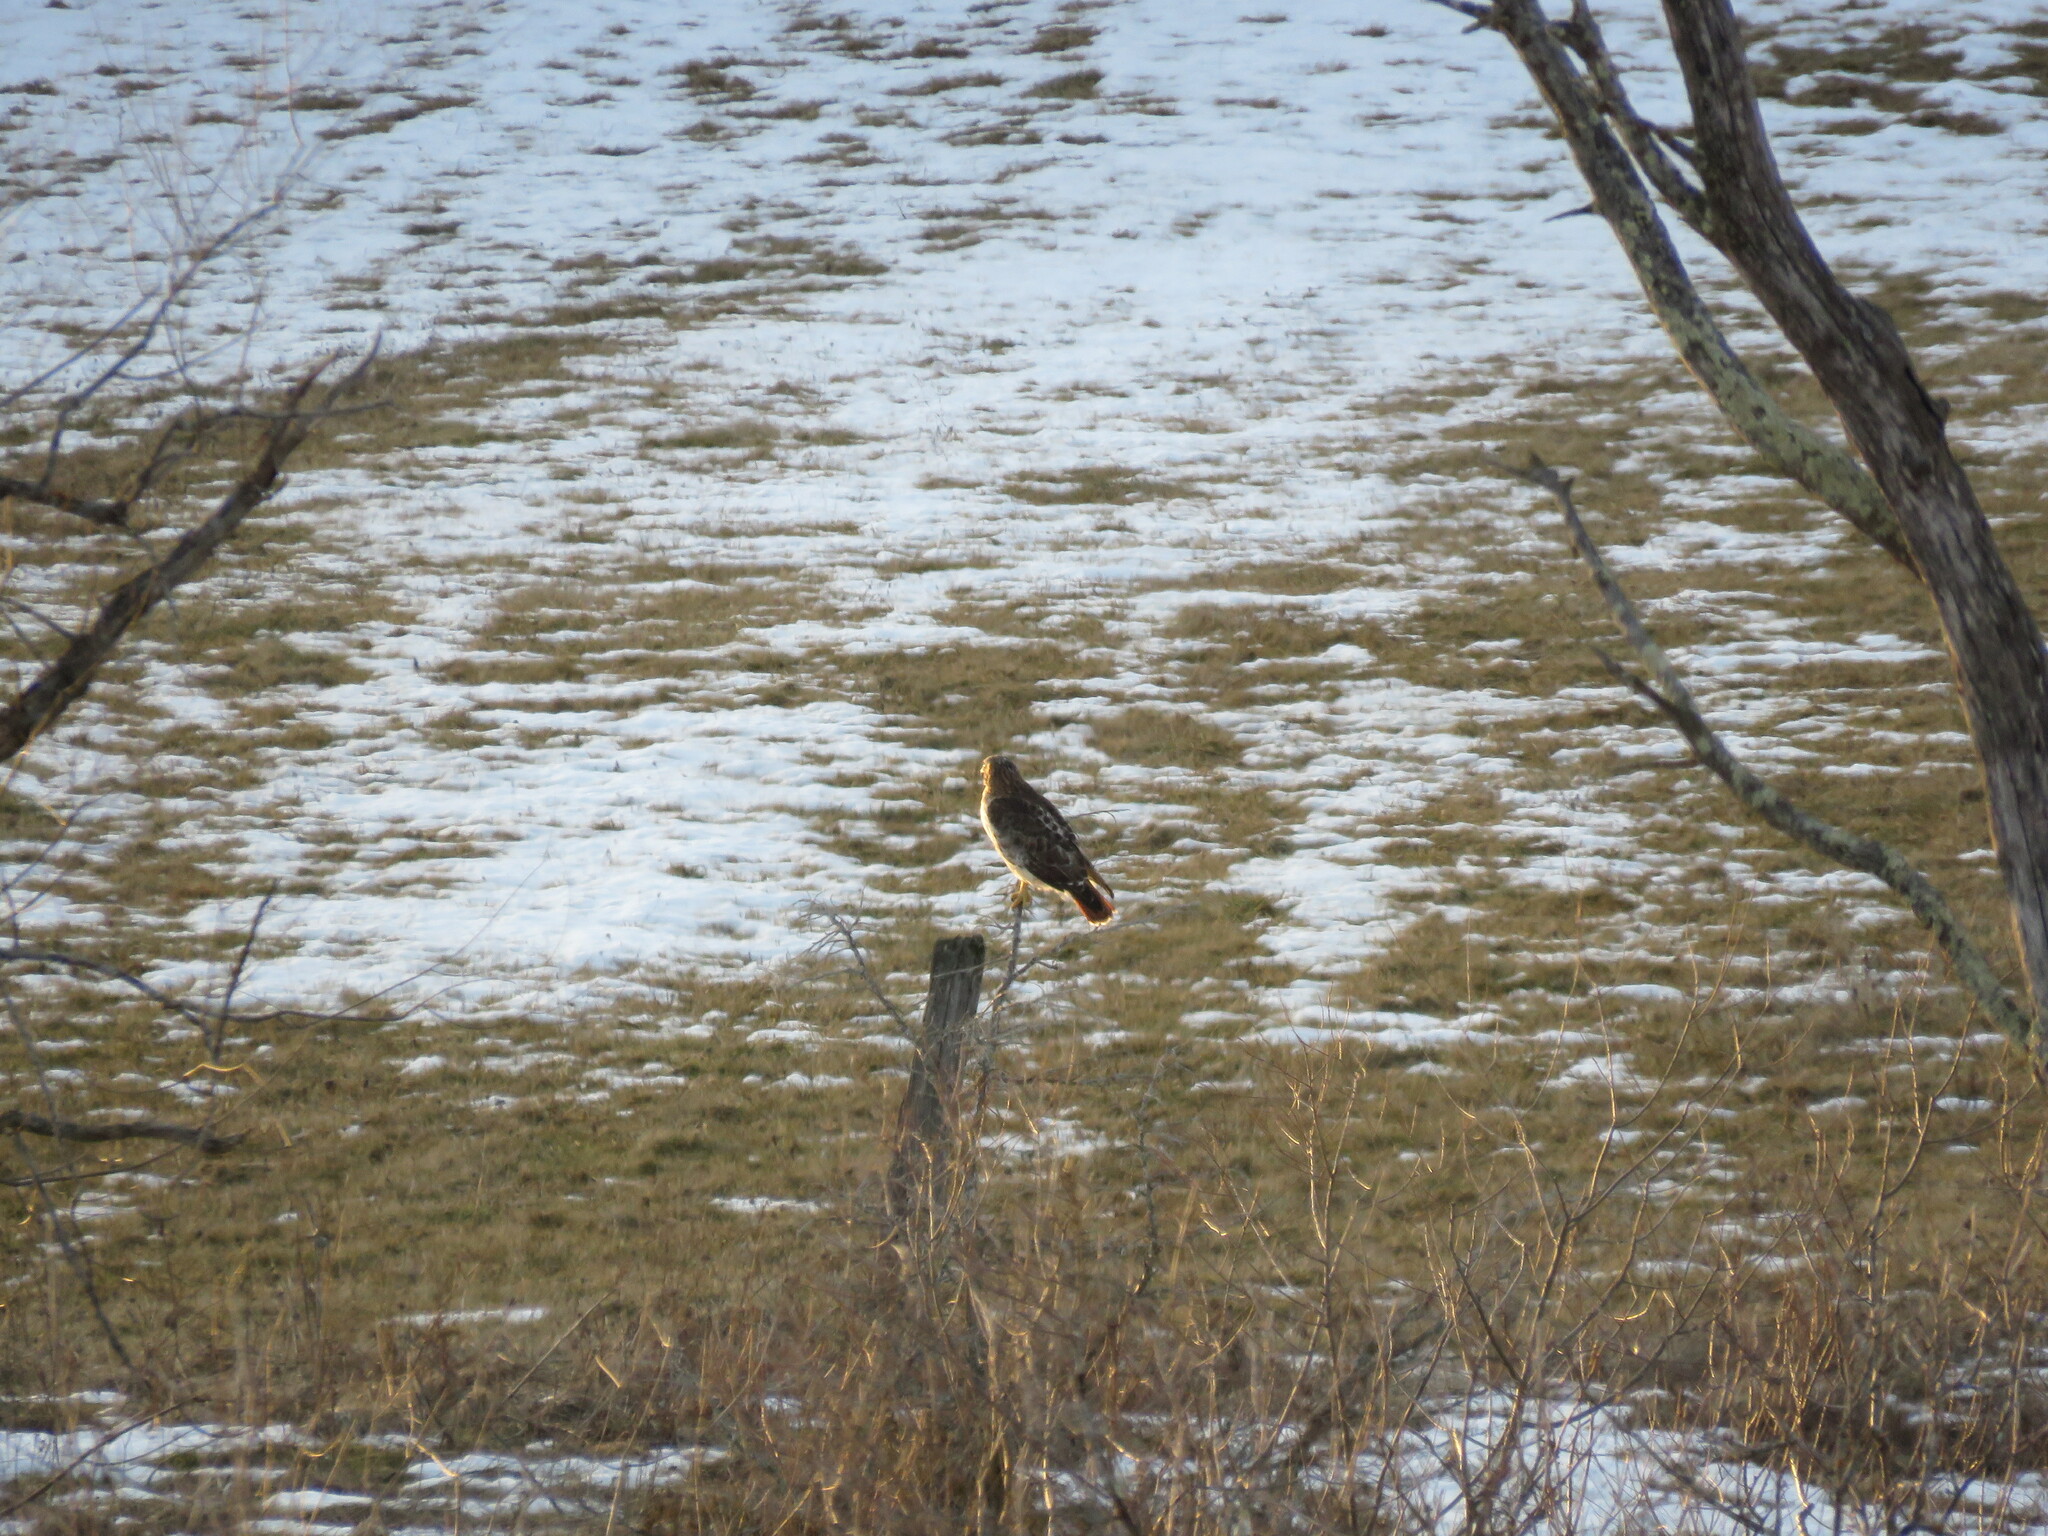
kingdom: Animalia
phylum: Chordata
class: Aves
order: Accipitriformes
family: Accipitridae
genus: Buteo
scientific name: Buteo jamaicensis
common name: Red-tailed hawk
